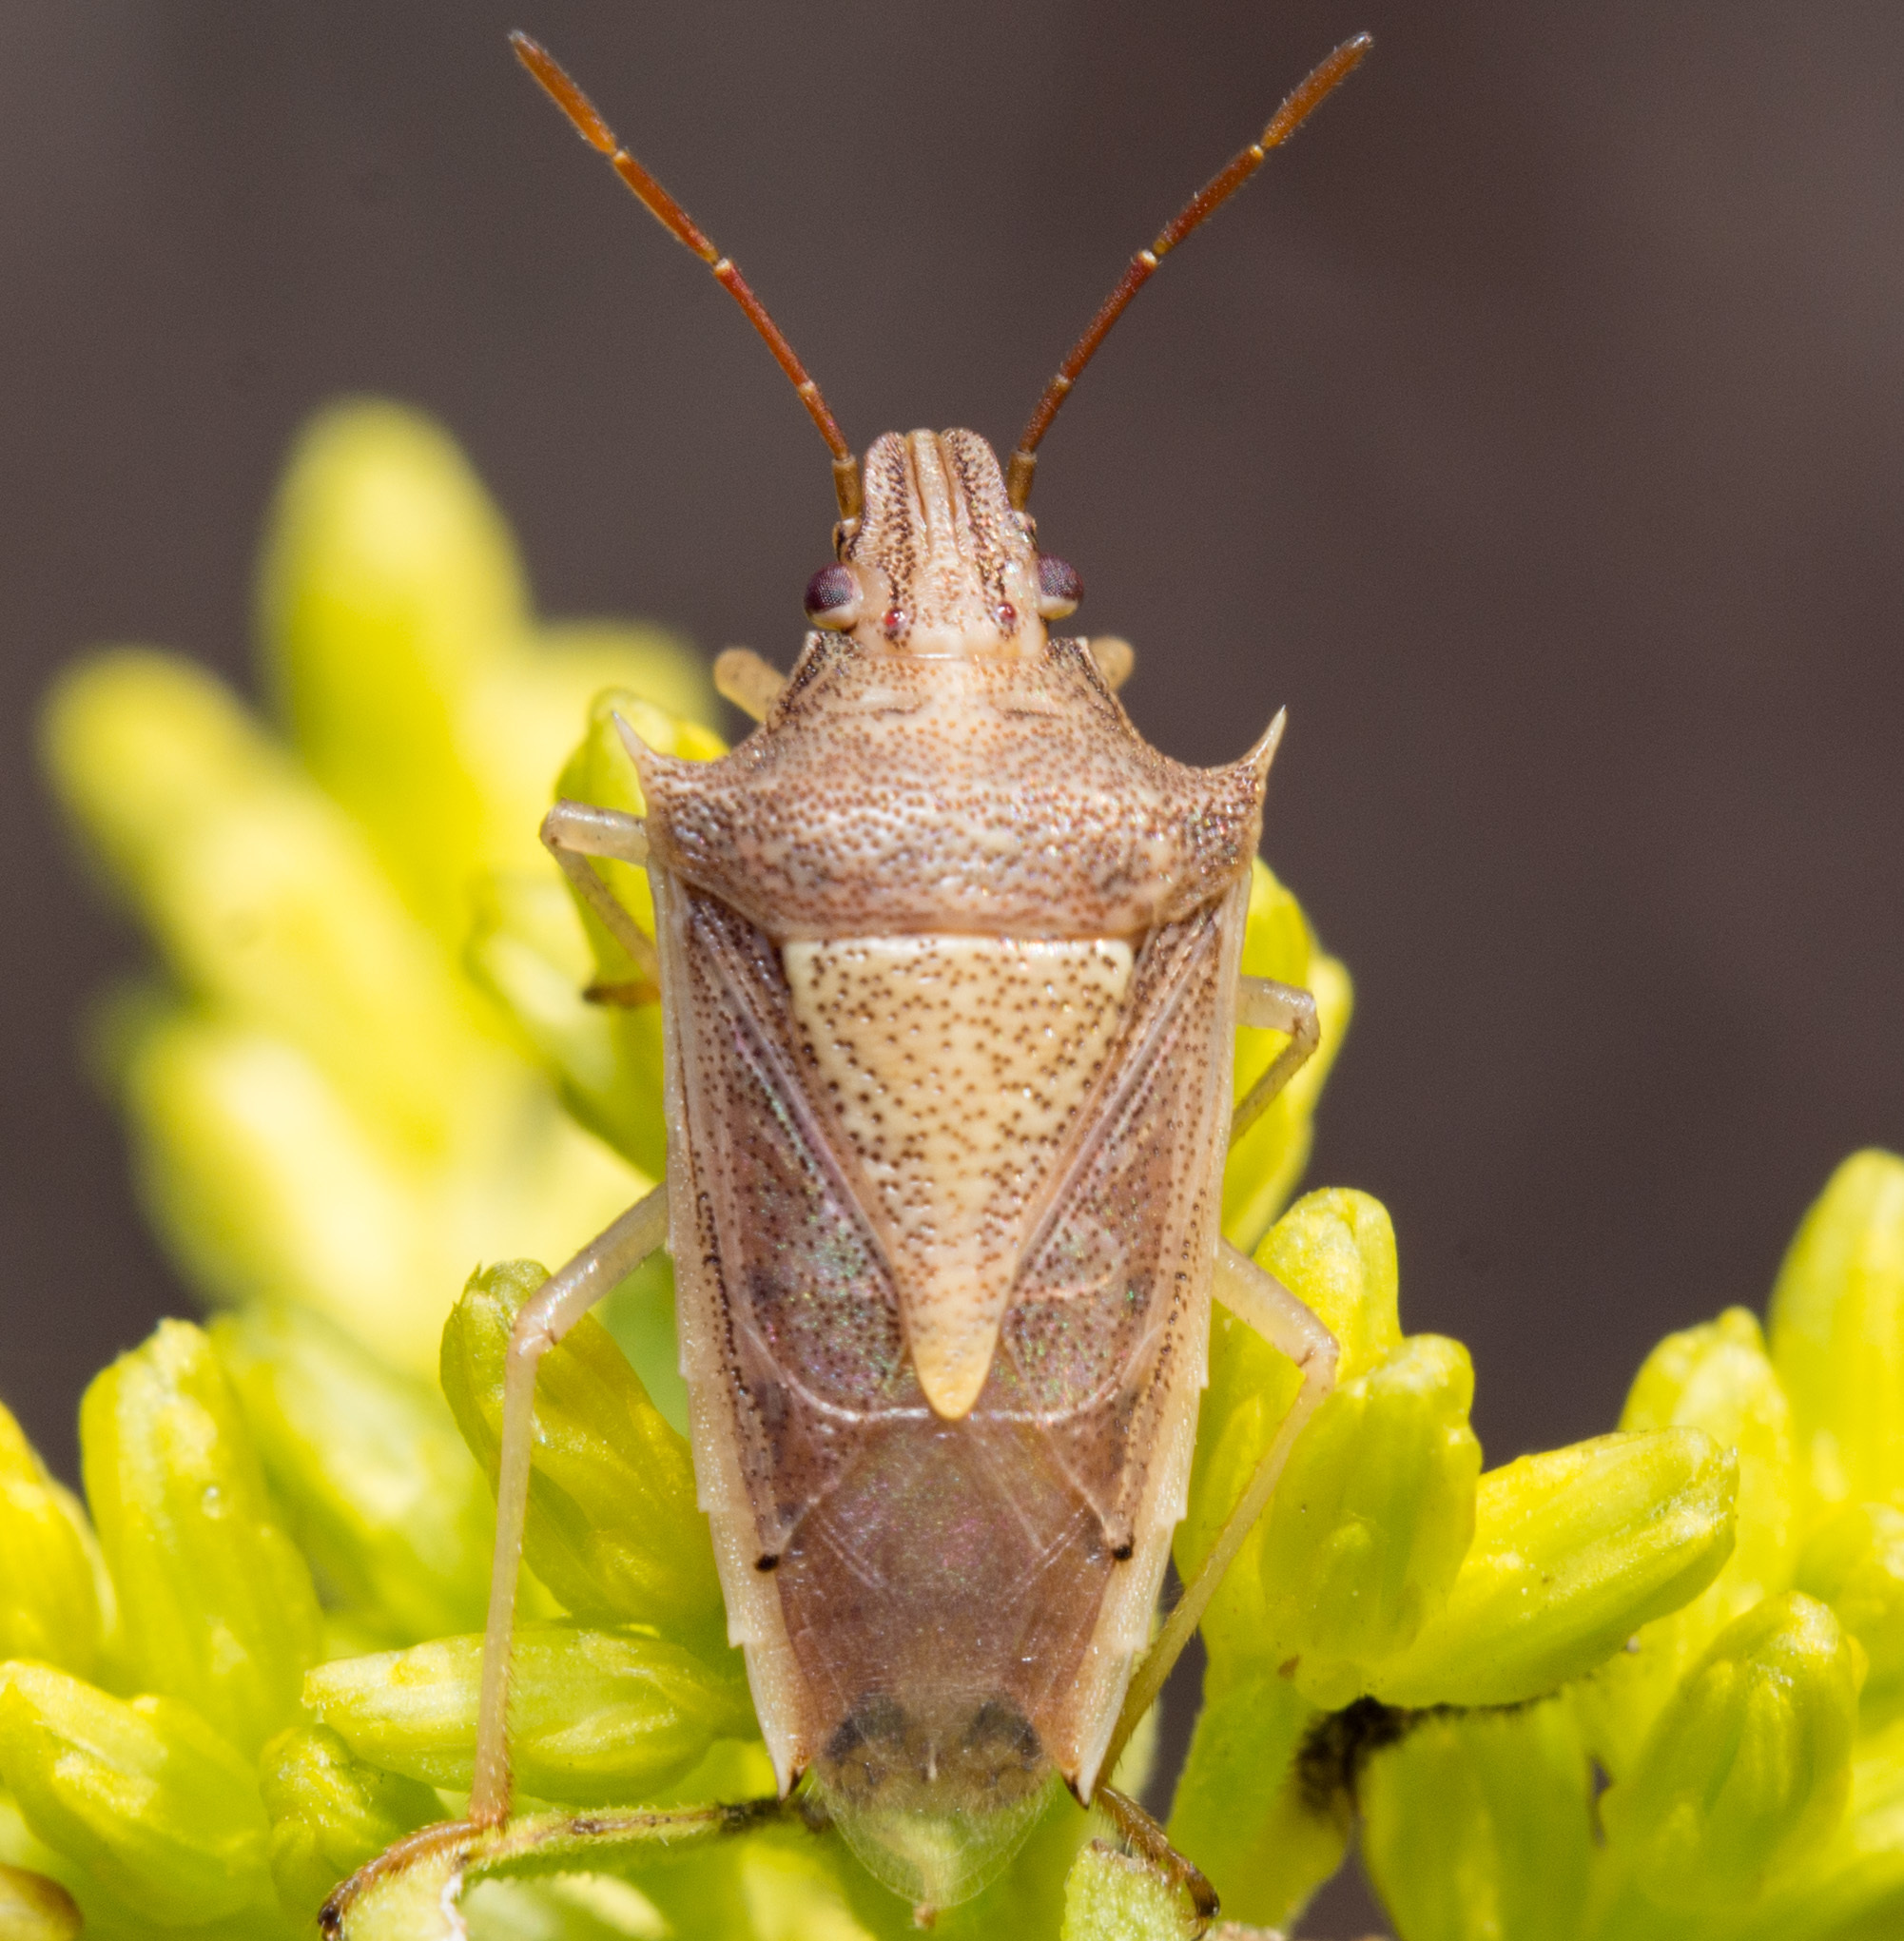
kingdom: Animalia
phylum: Arthropoda
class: Insecta
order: Hemiptera
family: Pentatomidae
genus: Oebalus
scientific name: Oebalus pugnax
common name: Rice stink bug
